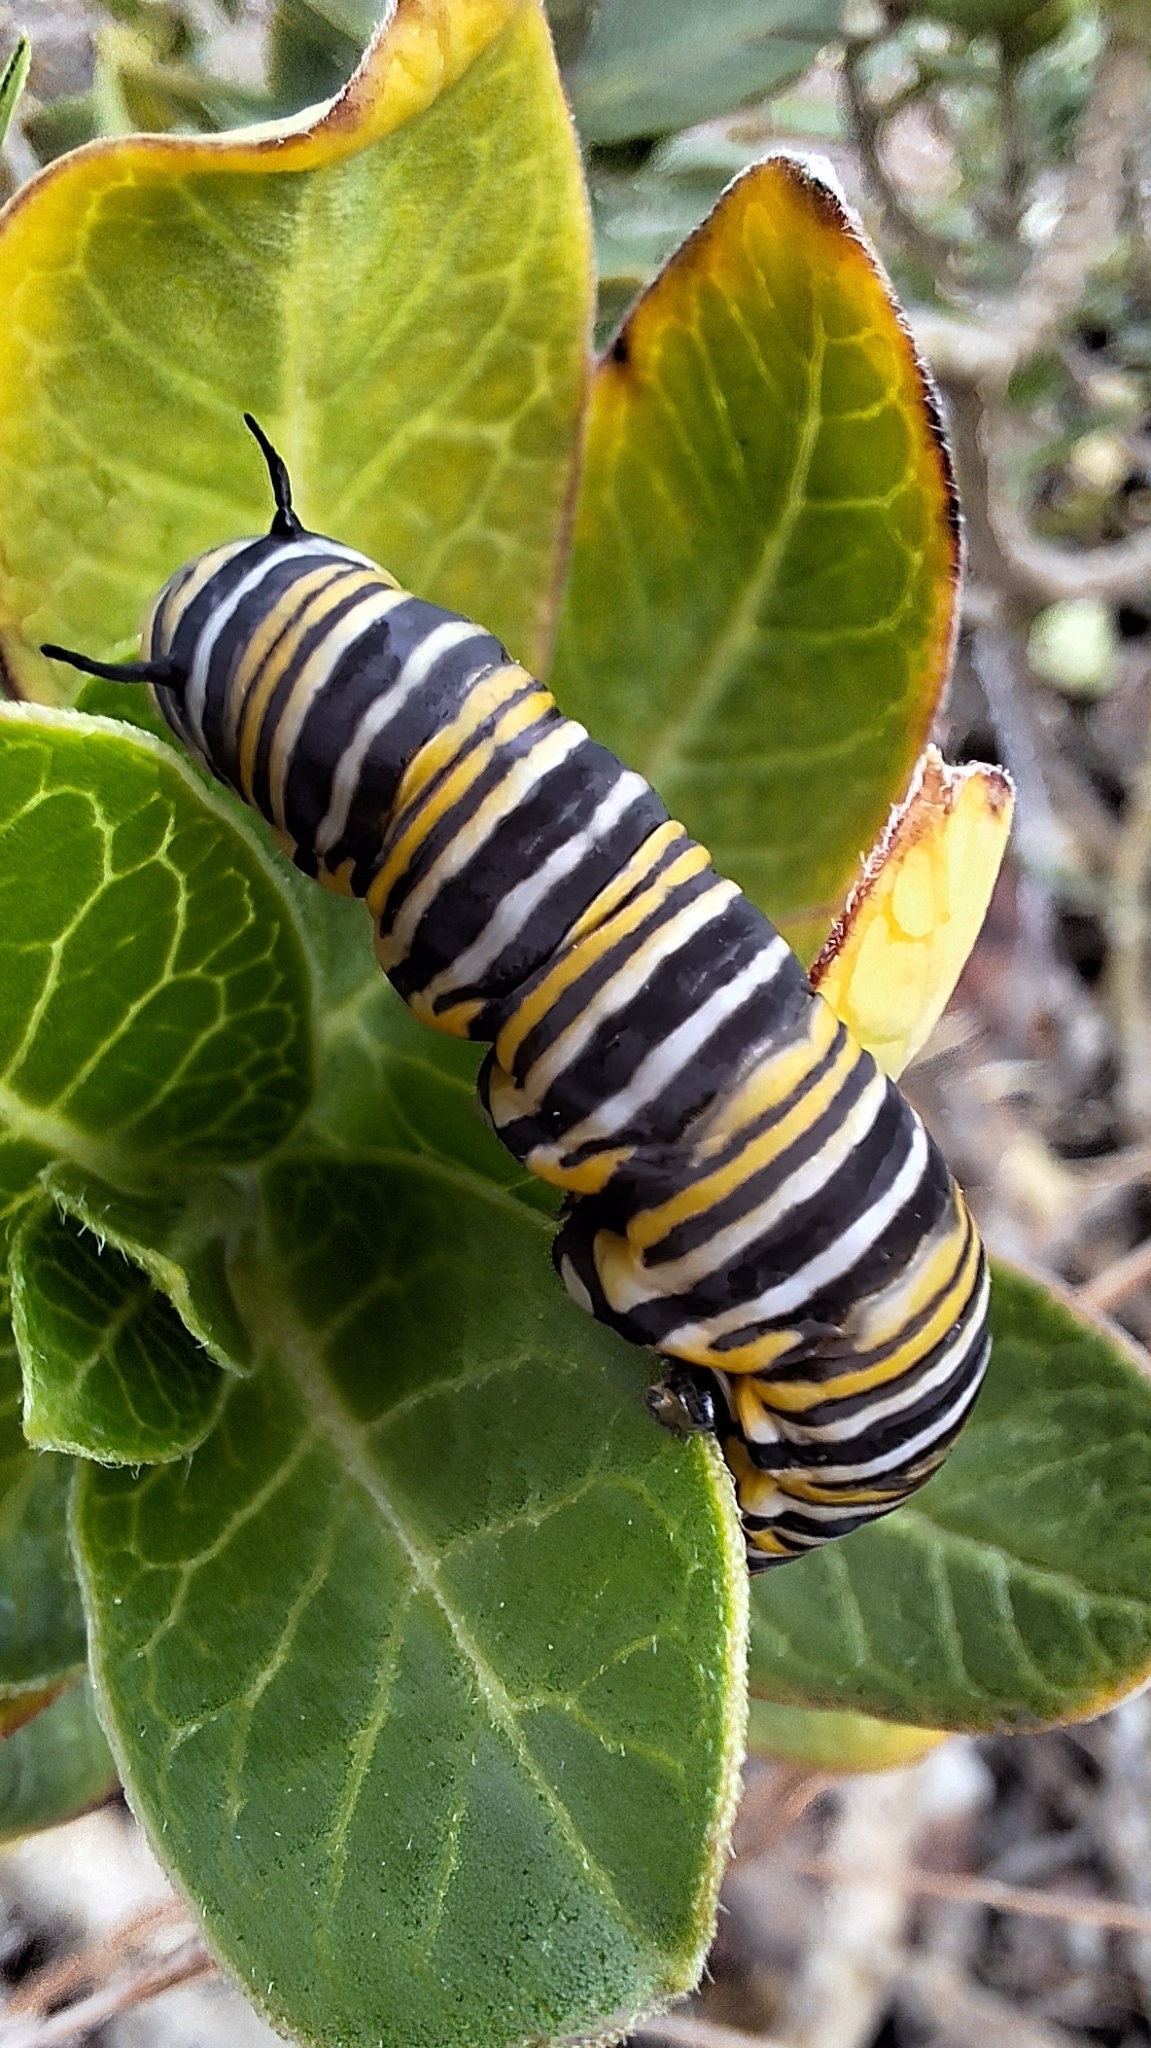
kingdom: Animalia
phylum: Arthropoda
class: Insecta
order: Lepidoptera
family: Nymphalidae
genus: Danaus
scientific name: Danaus plexippus
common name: Monarch
